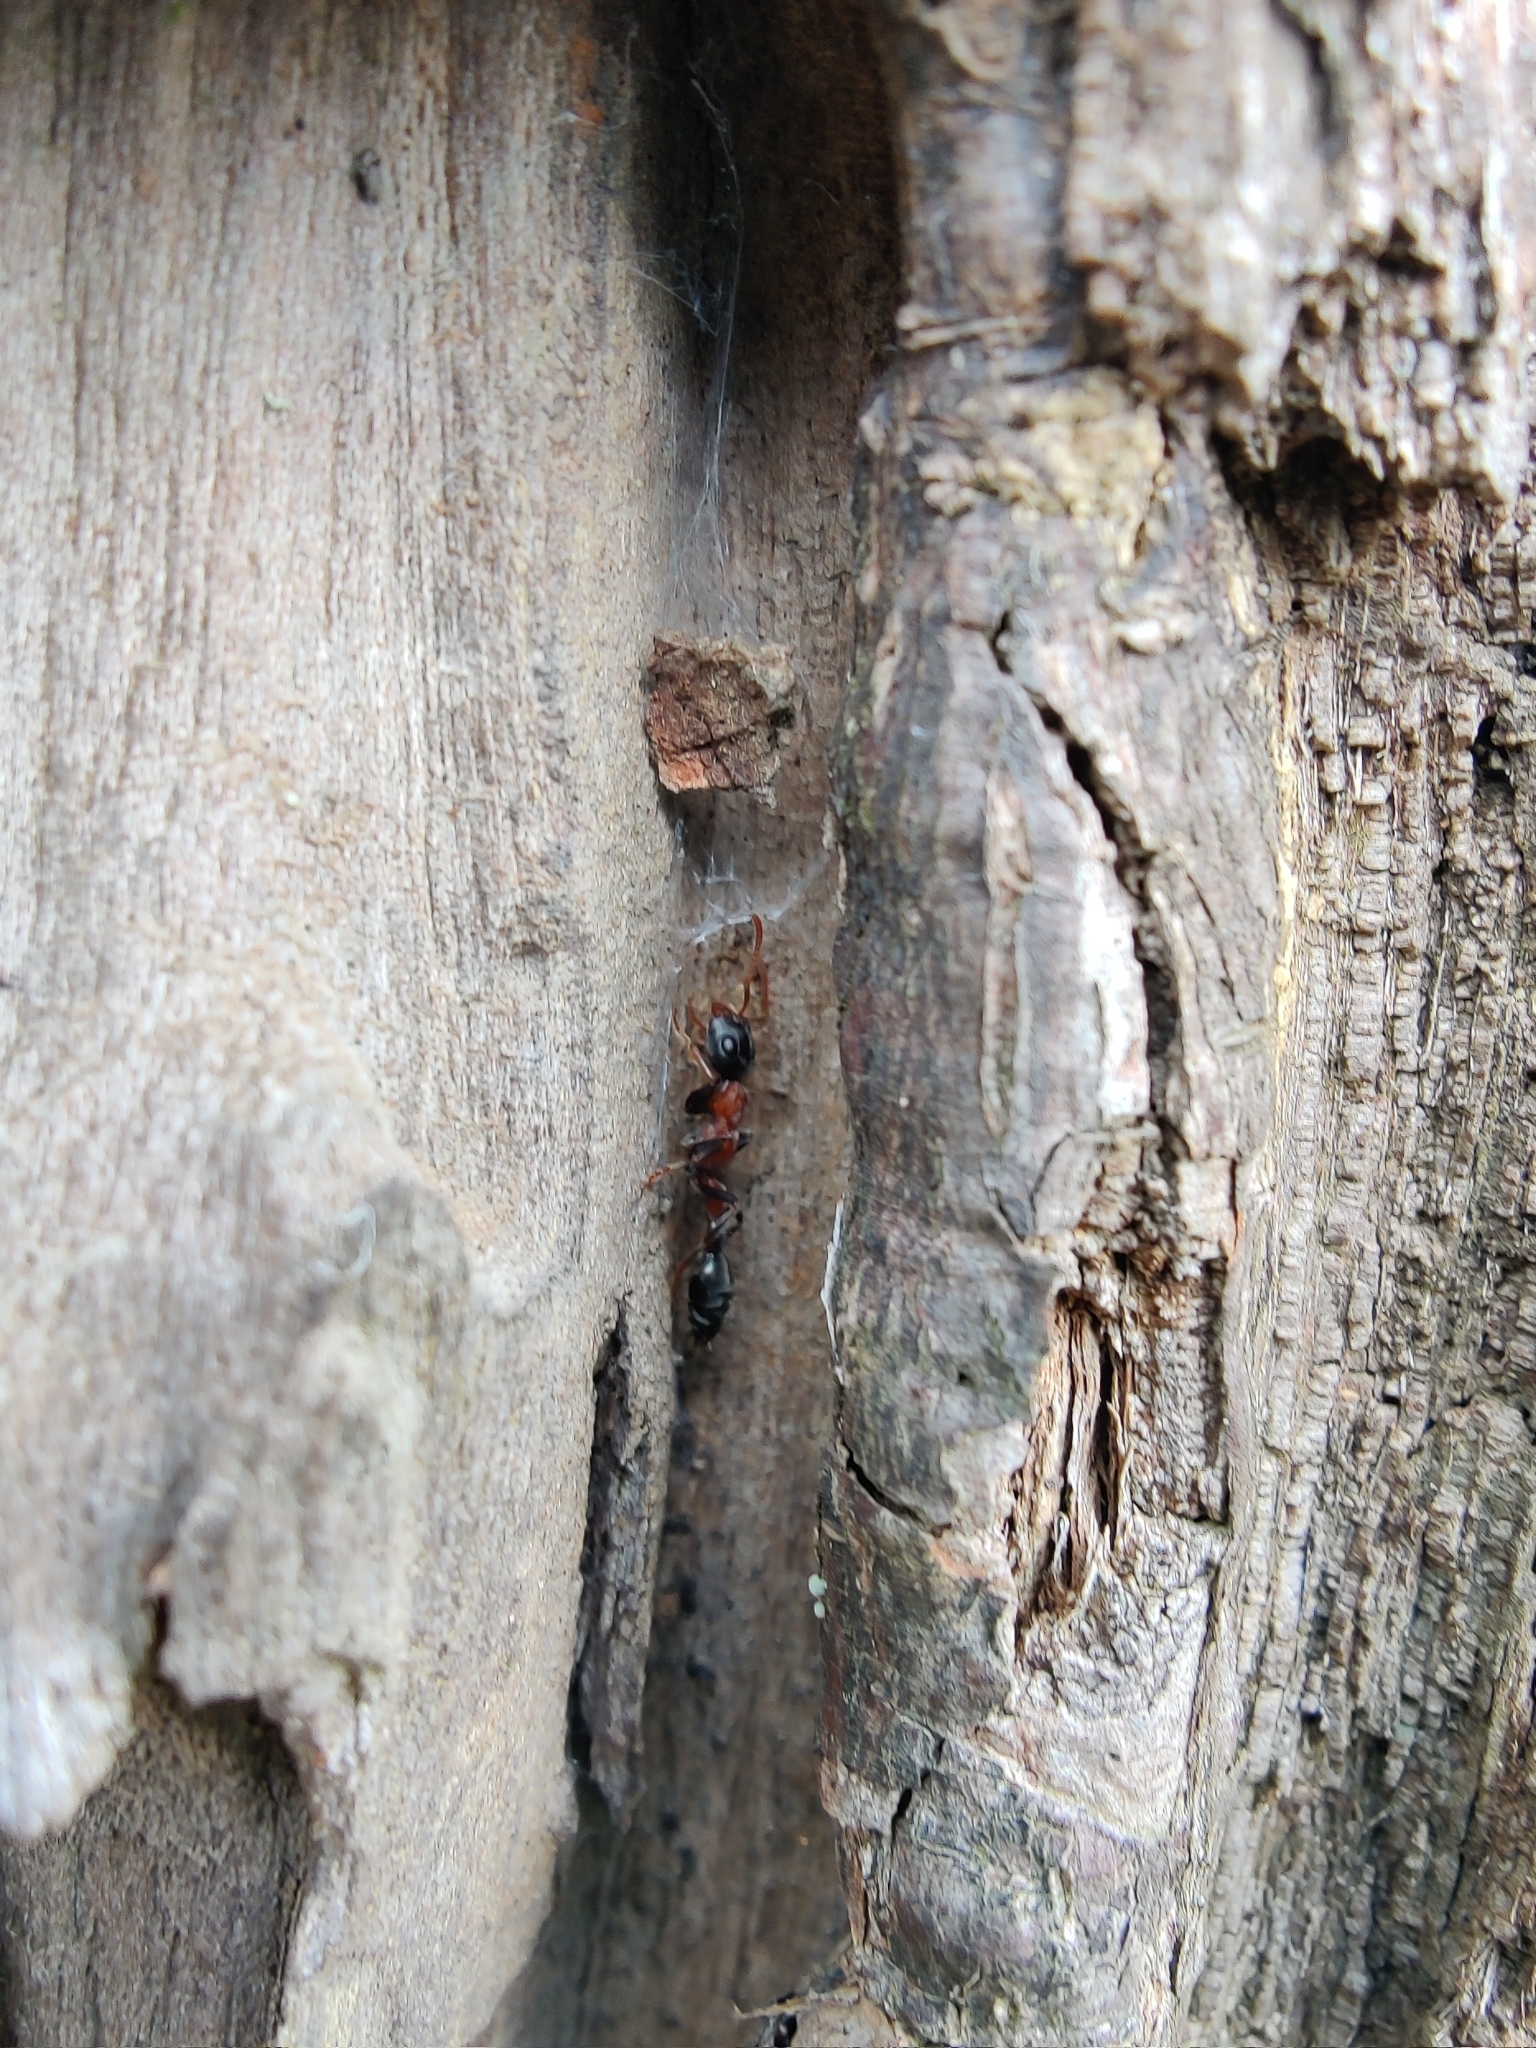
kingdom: Animalia
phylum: Arthropoda
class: Insecta
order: Hymenoptera
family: Formicidae
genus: Tetraponera
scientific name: Tetraponera rufonigra
